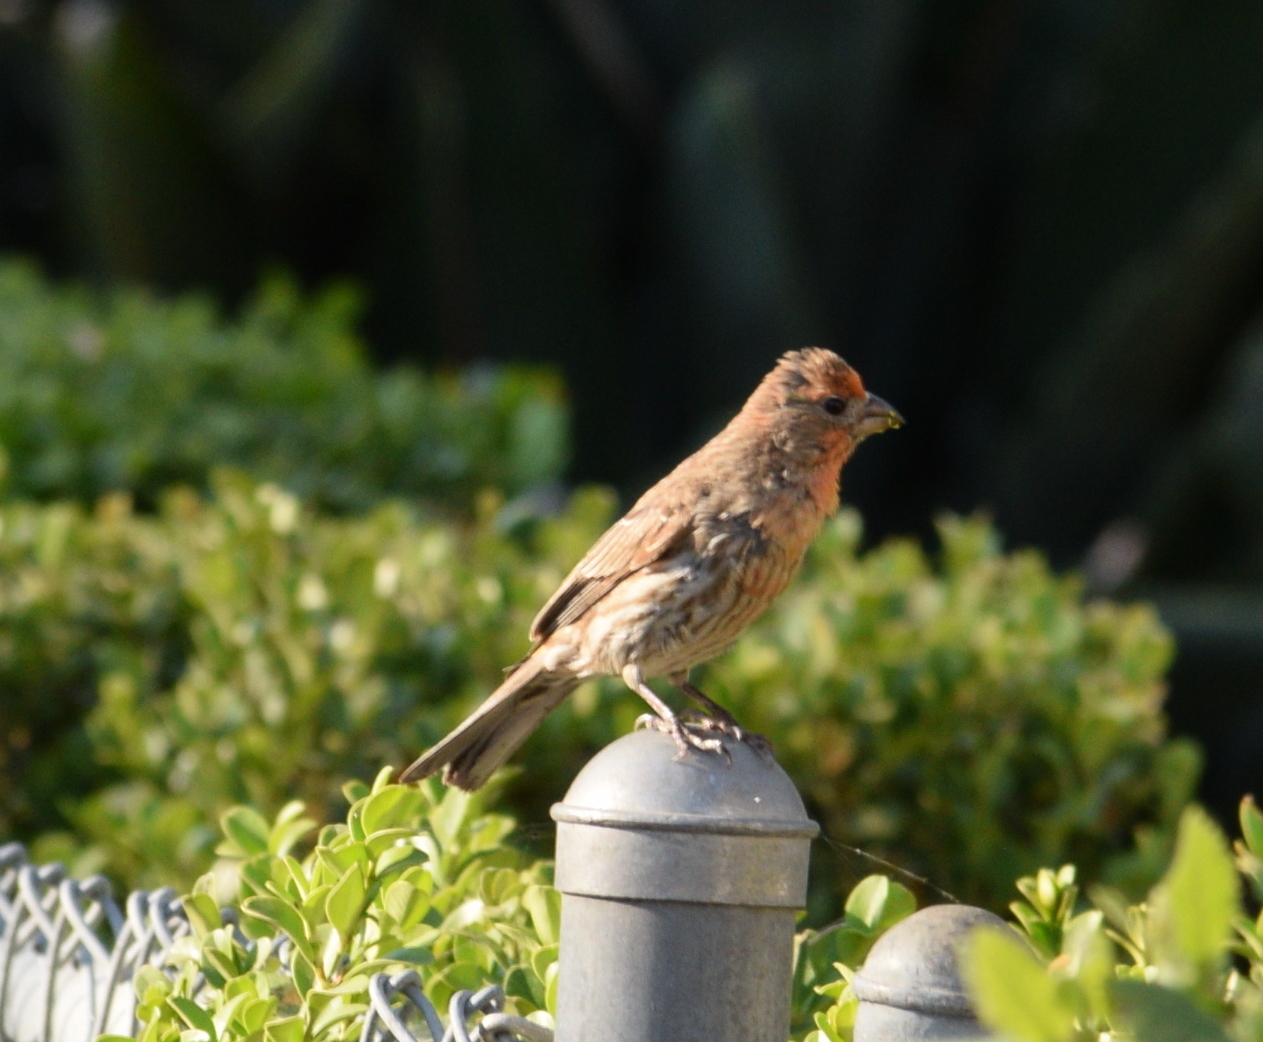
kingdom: Animalia
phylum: Chordata
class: Aves
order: Passeriformes
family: Fringillidae
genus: Haemorhous
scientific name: Haemorhous mexicanus
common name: House finch
